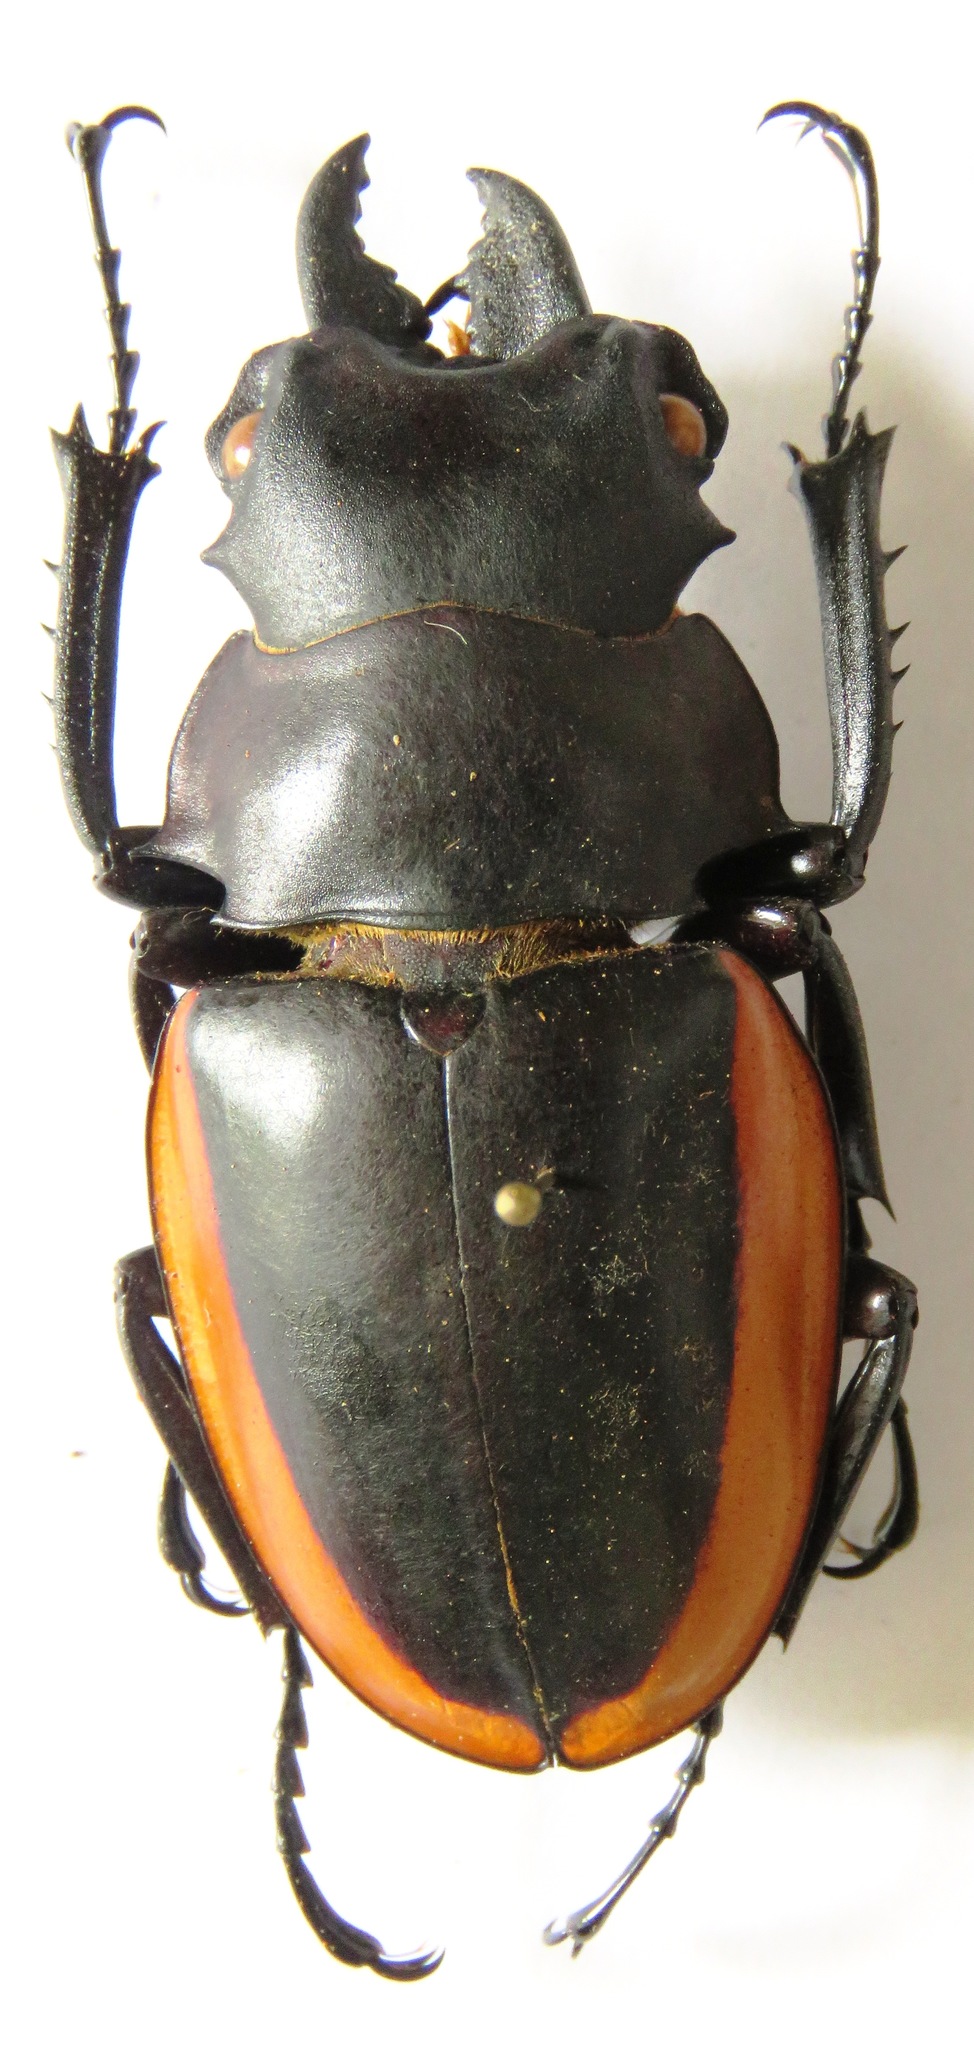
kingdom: Animalia
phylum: Arthropoda
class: Insecta
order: Coleoptera
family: Lucanidae
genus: Odontolabis
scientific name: Odontolabis cuvera
